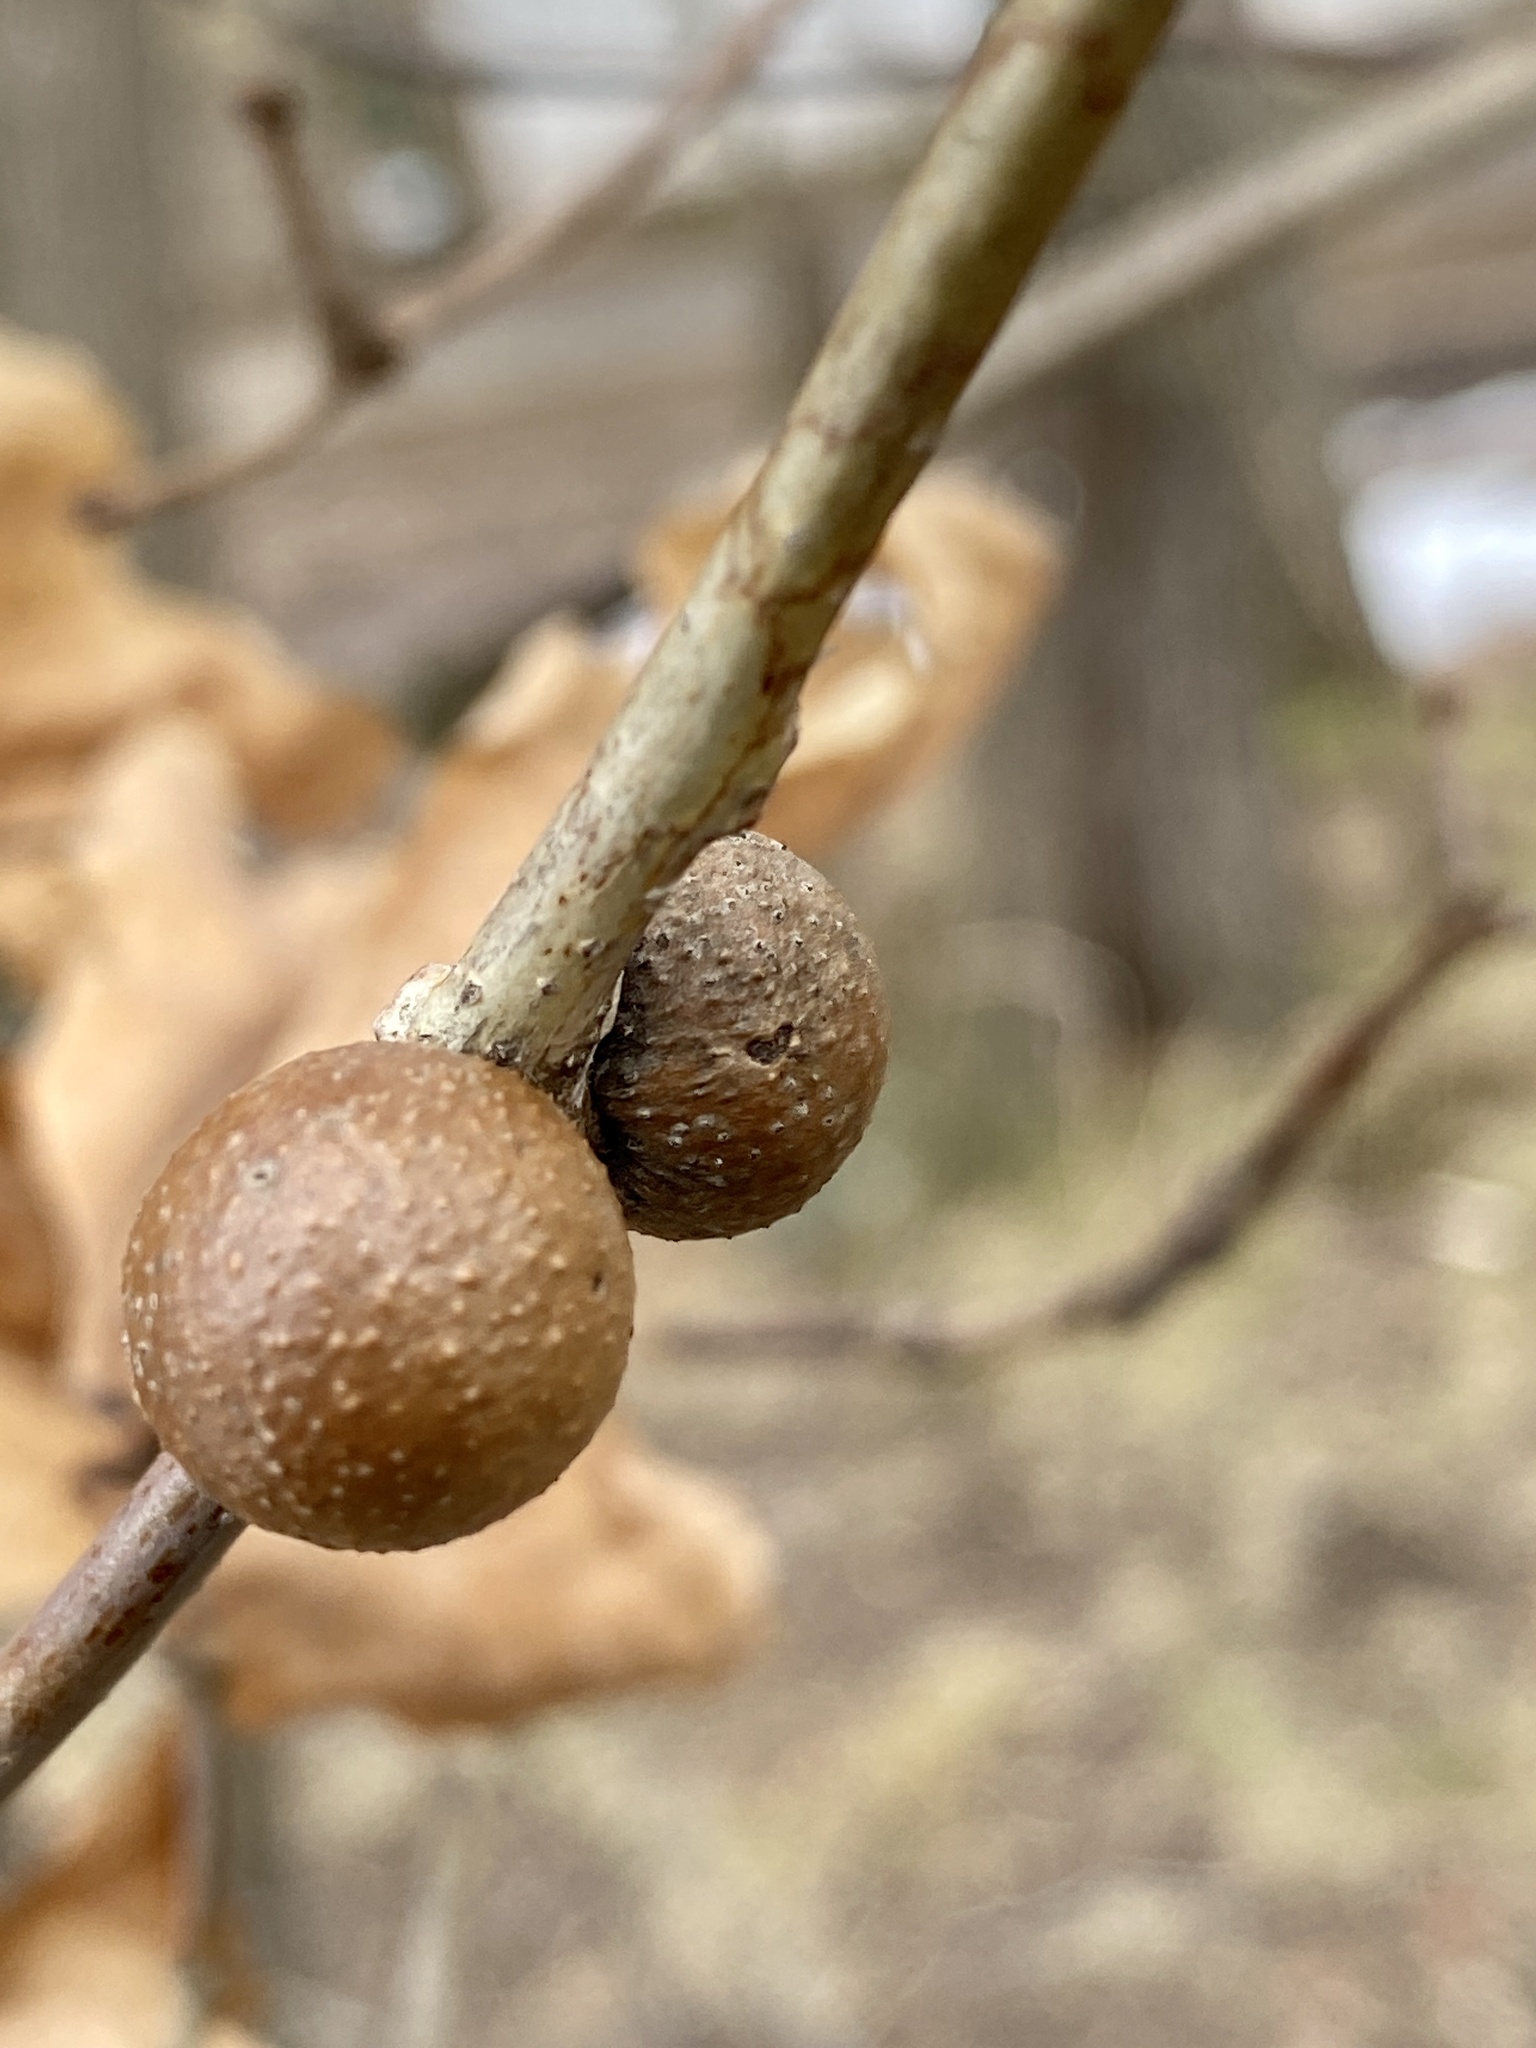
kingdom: Animalia
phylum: Arthropoda
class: Insecta
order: Hymenoptera
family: Cynipidae
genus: Disholcaspis
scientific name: Disholcaspis quercusglobulus
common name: Round bullet gall wasp
